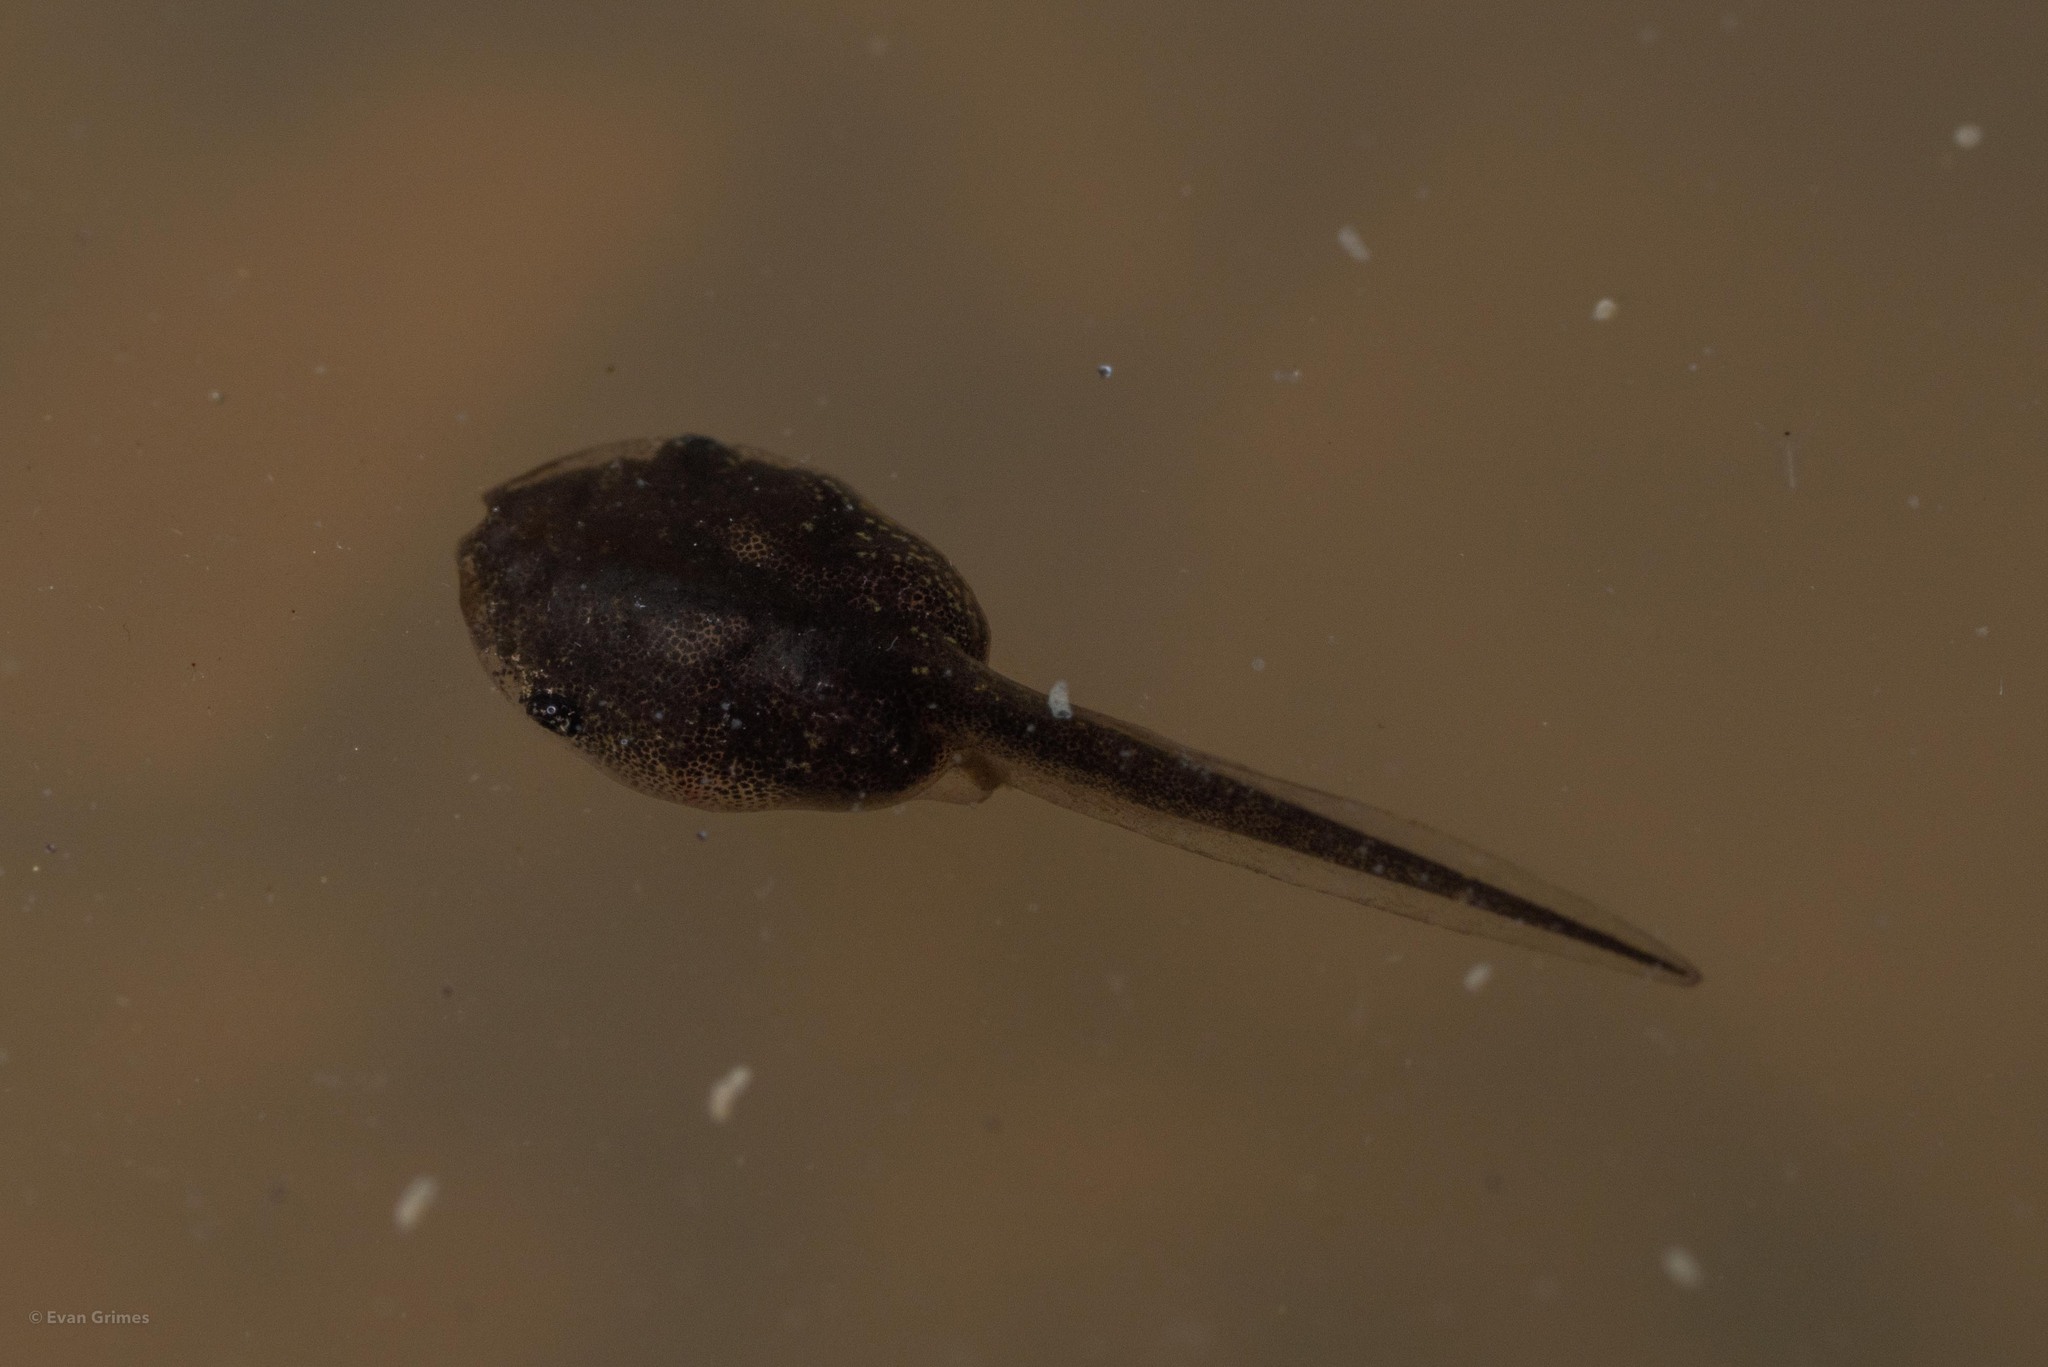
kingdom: Animalia
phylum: Chordata
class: Amphibia
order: Anura
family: Microhylidae
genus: Gastrophryne
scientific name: Gastrophryne carolinensis
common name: Eastern narrowmouth toad
